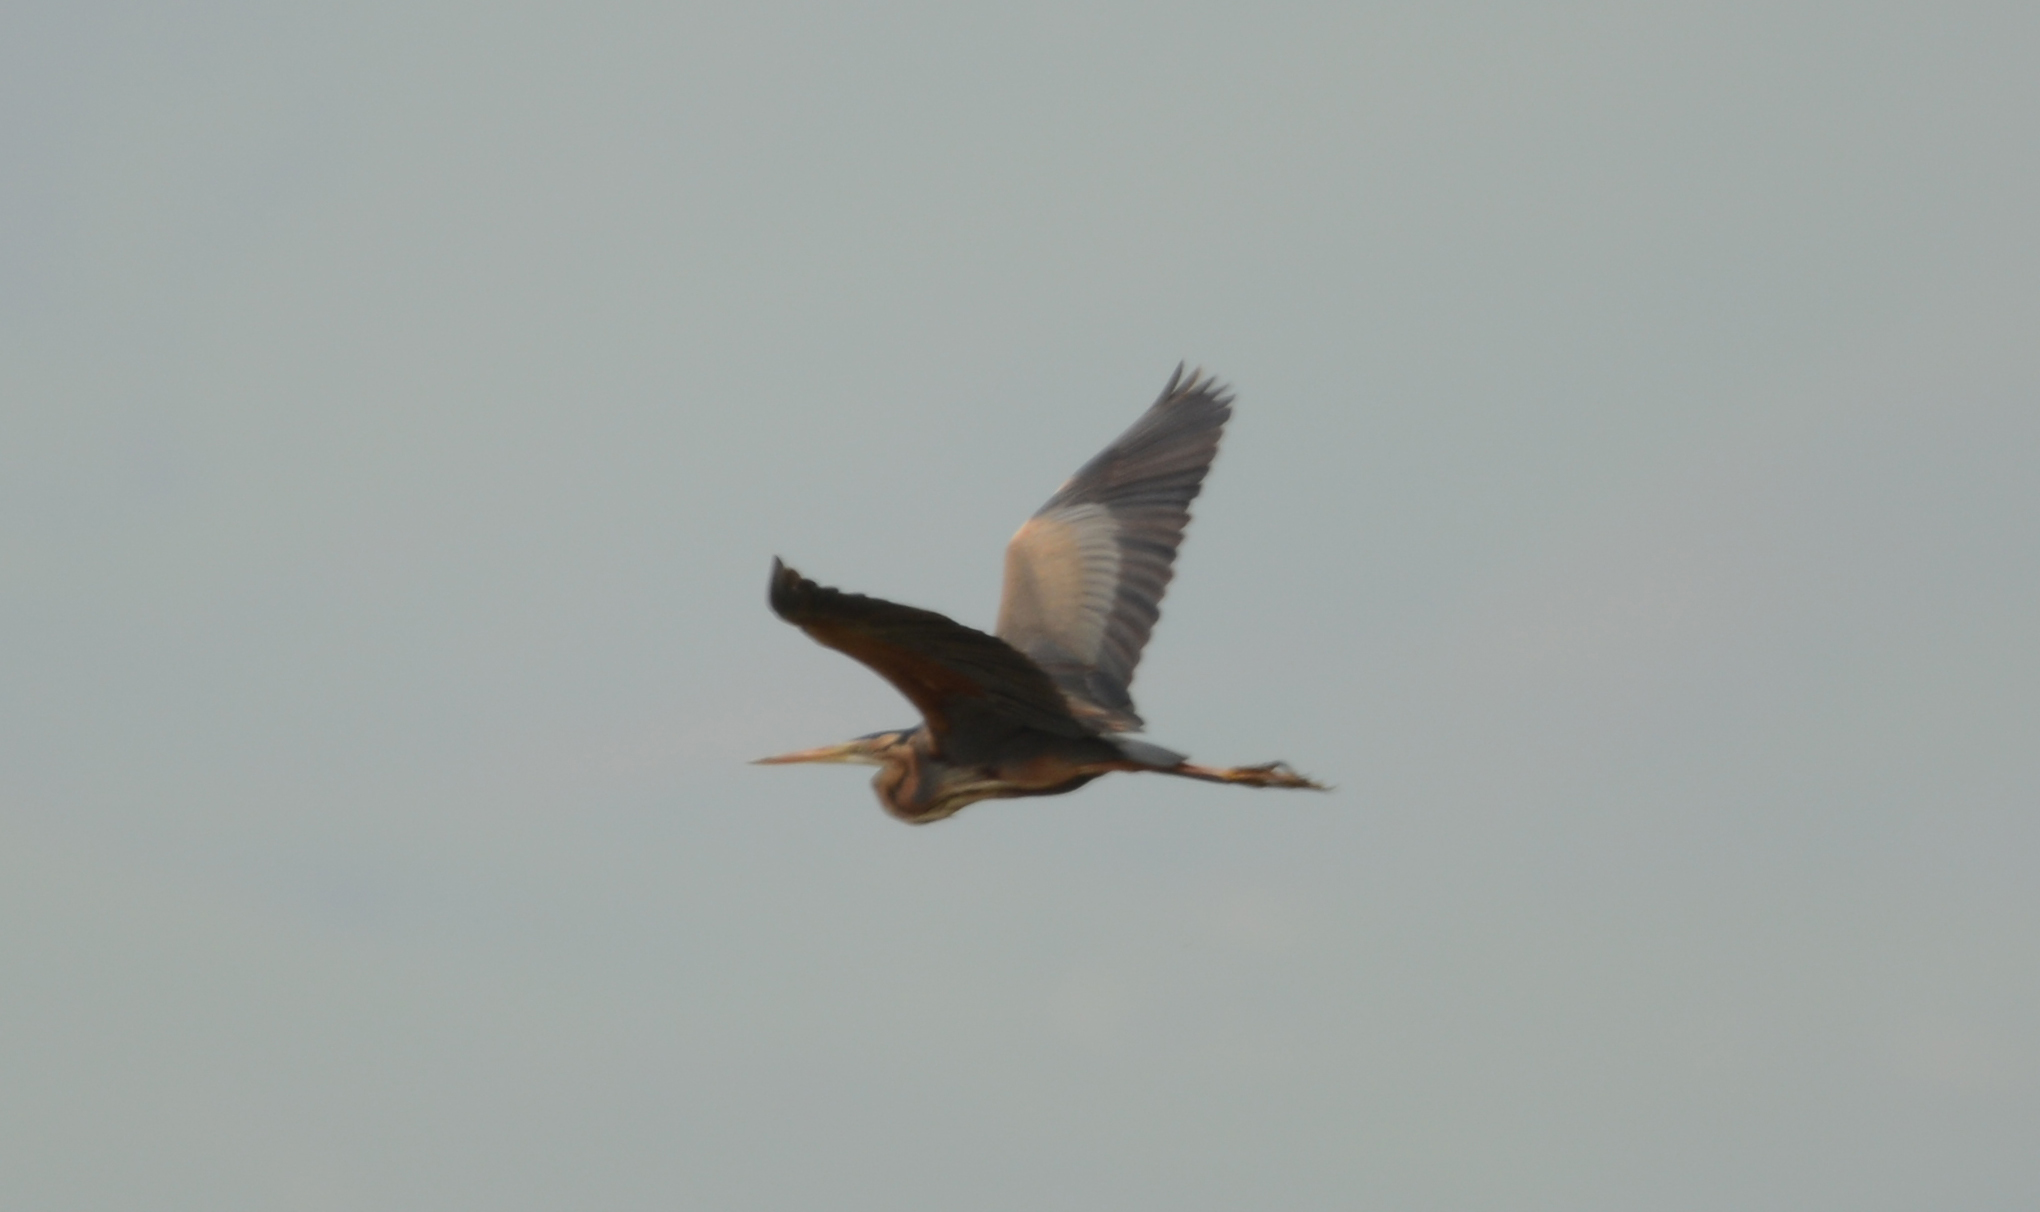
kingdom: Animalia
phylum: Chordata
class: Aves
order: Pelecaniformes
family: Ardeidae
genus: Ardea
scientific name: Ardea purpurea
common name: Purple heron
